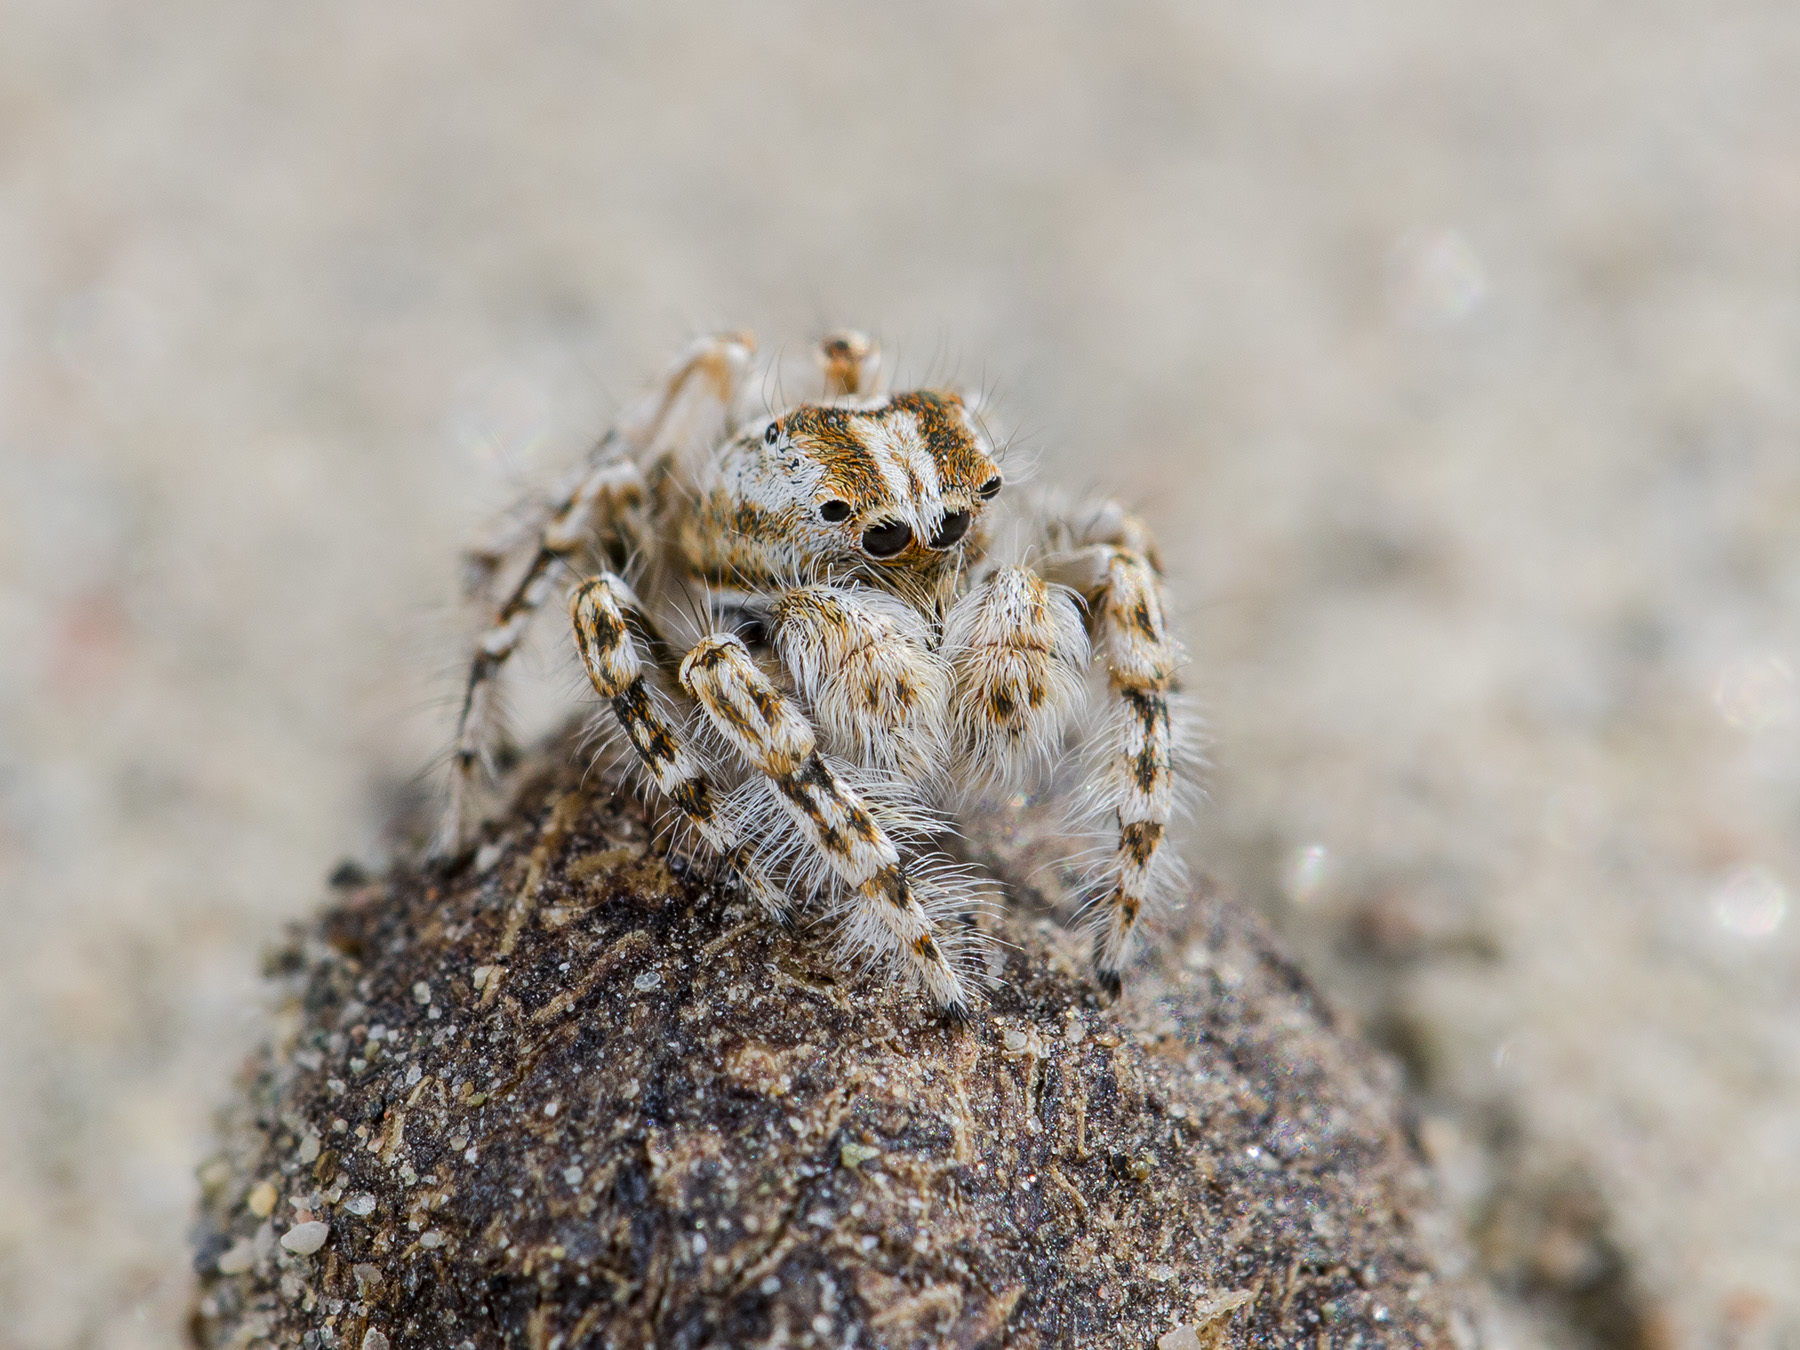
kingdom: Animalia
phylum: Arthropoda
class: Arachnida
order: Araneae
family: Salticidae
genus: Yllenus
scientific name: Yllenus turkestanicus
